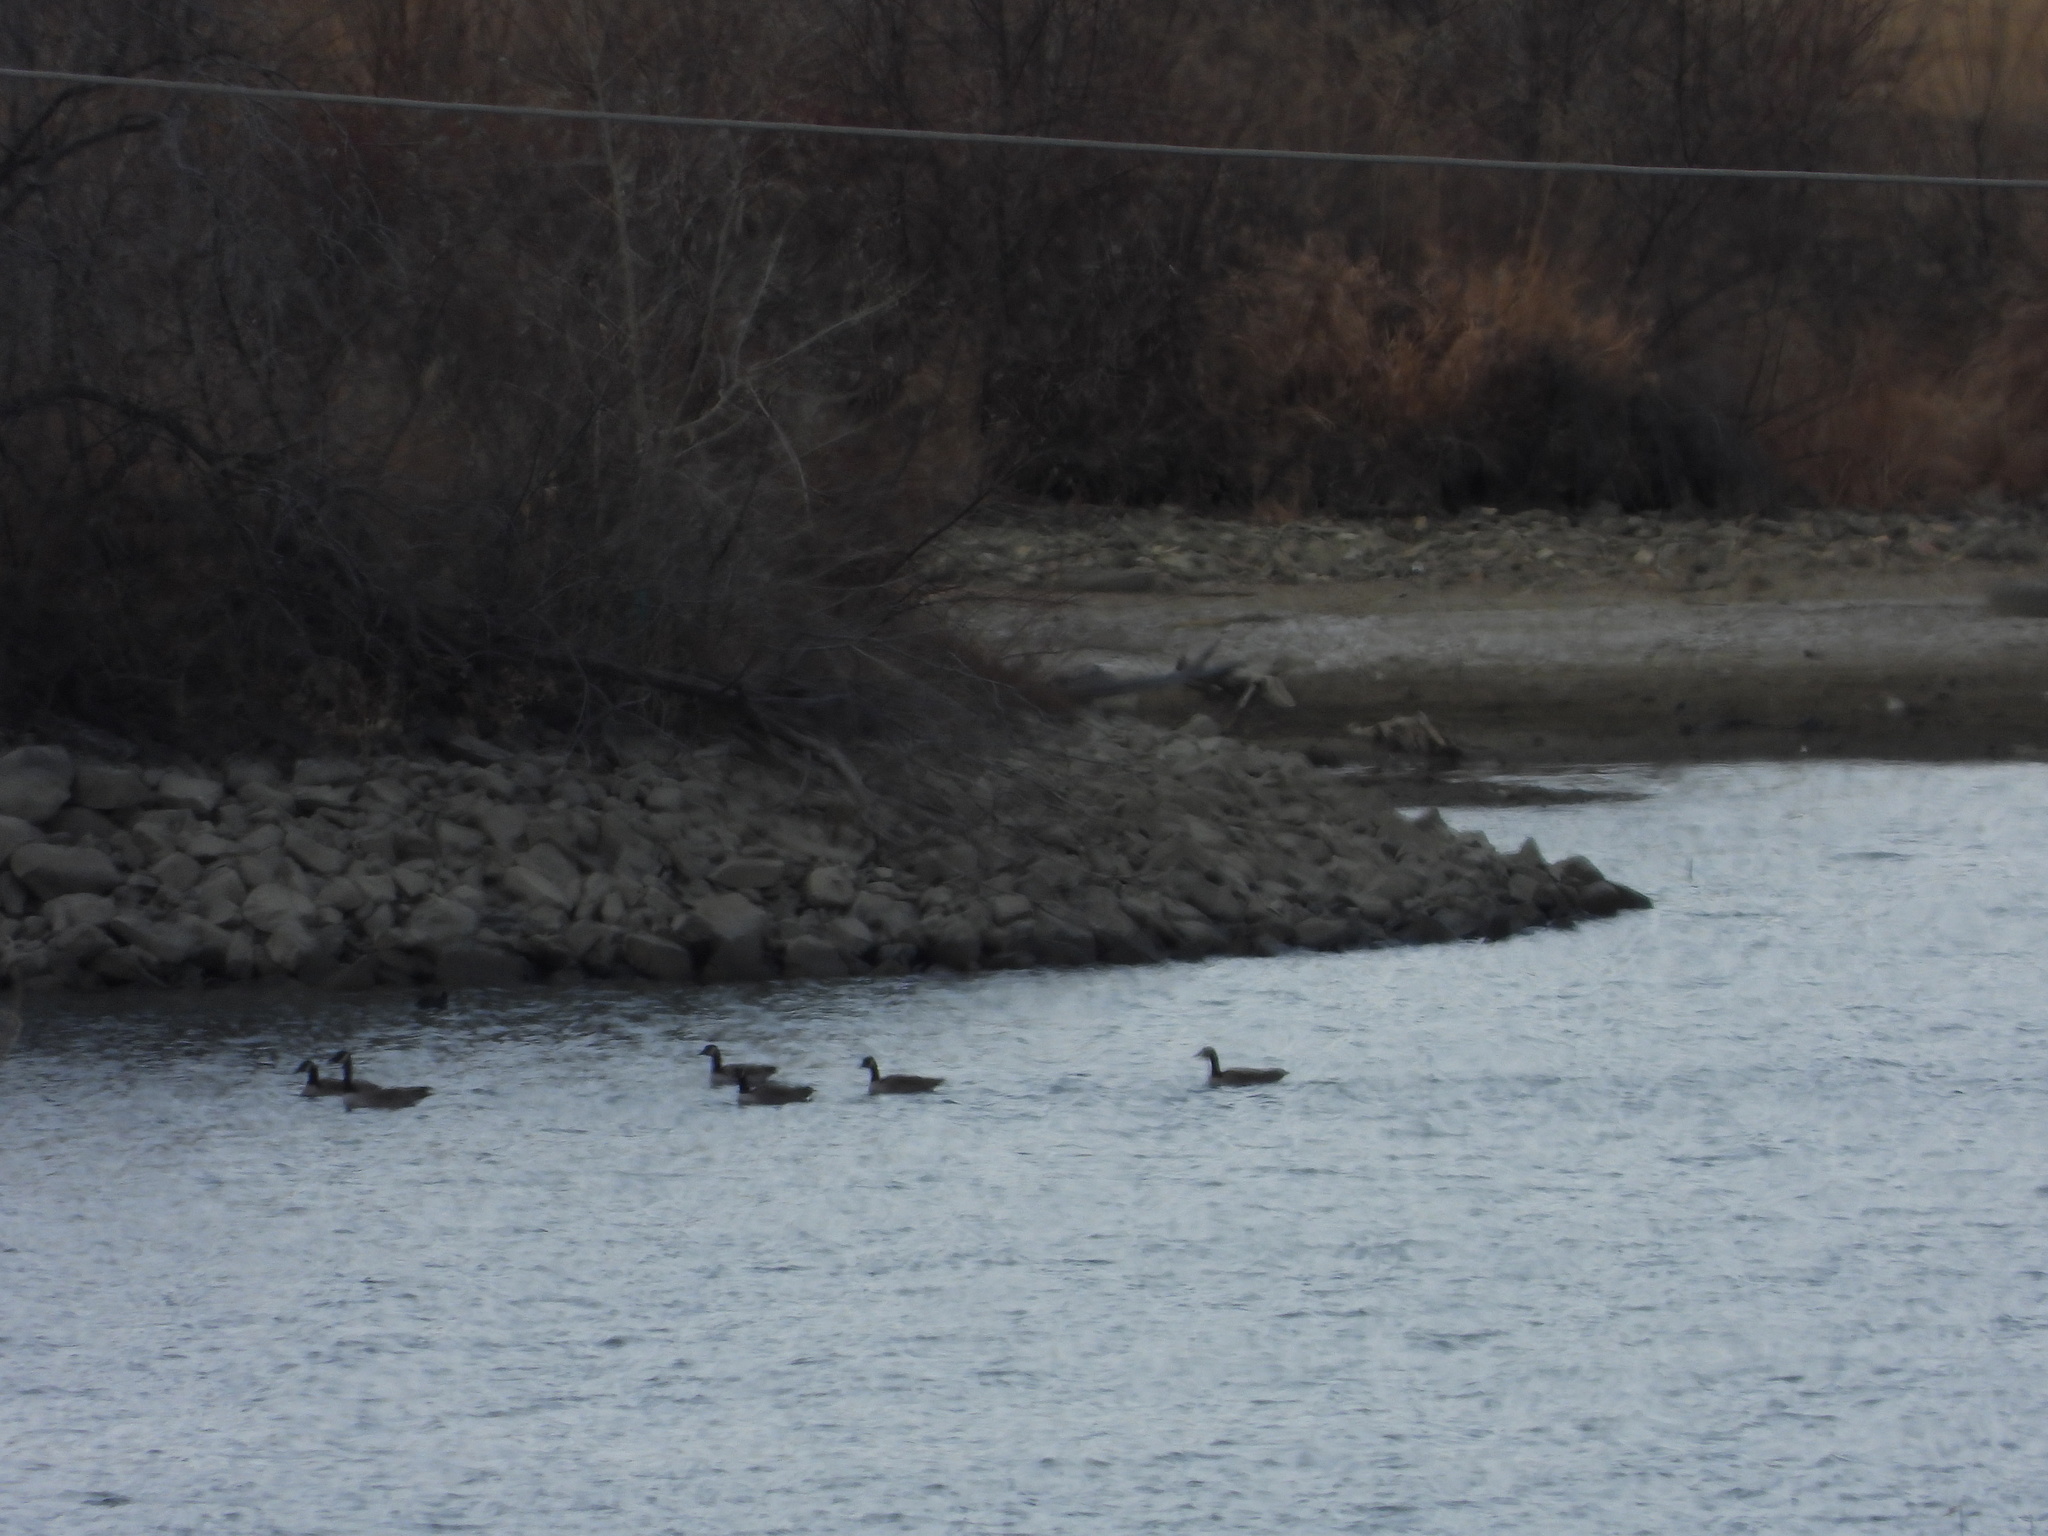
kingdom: Animalia
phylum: Chordata
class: Aves
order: Anseriformes
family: Anatidae
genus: Branta
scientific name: Branta canadensis
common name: Canada goose
